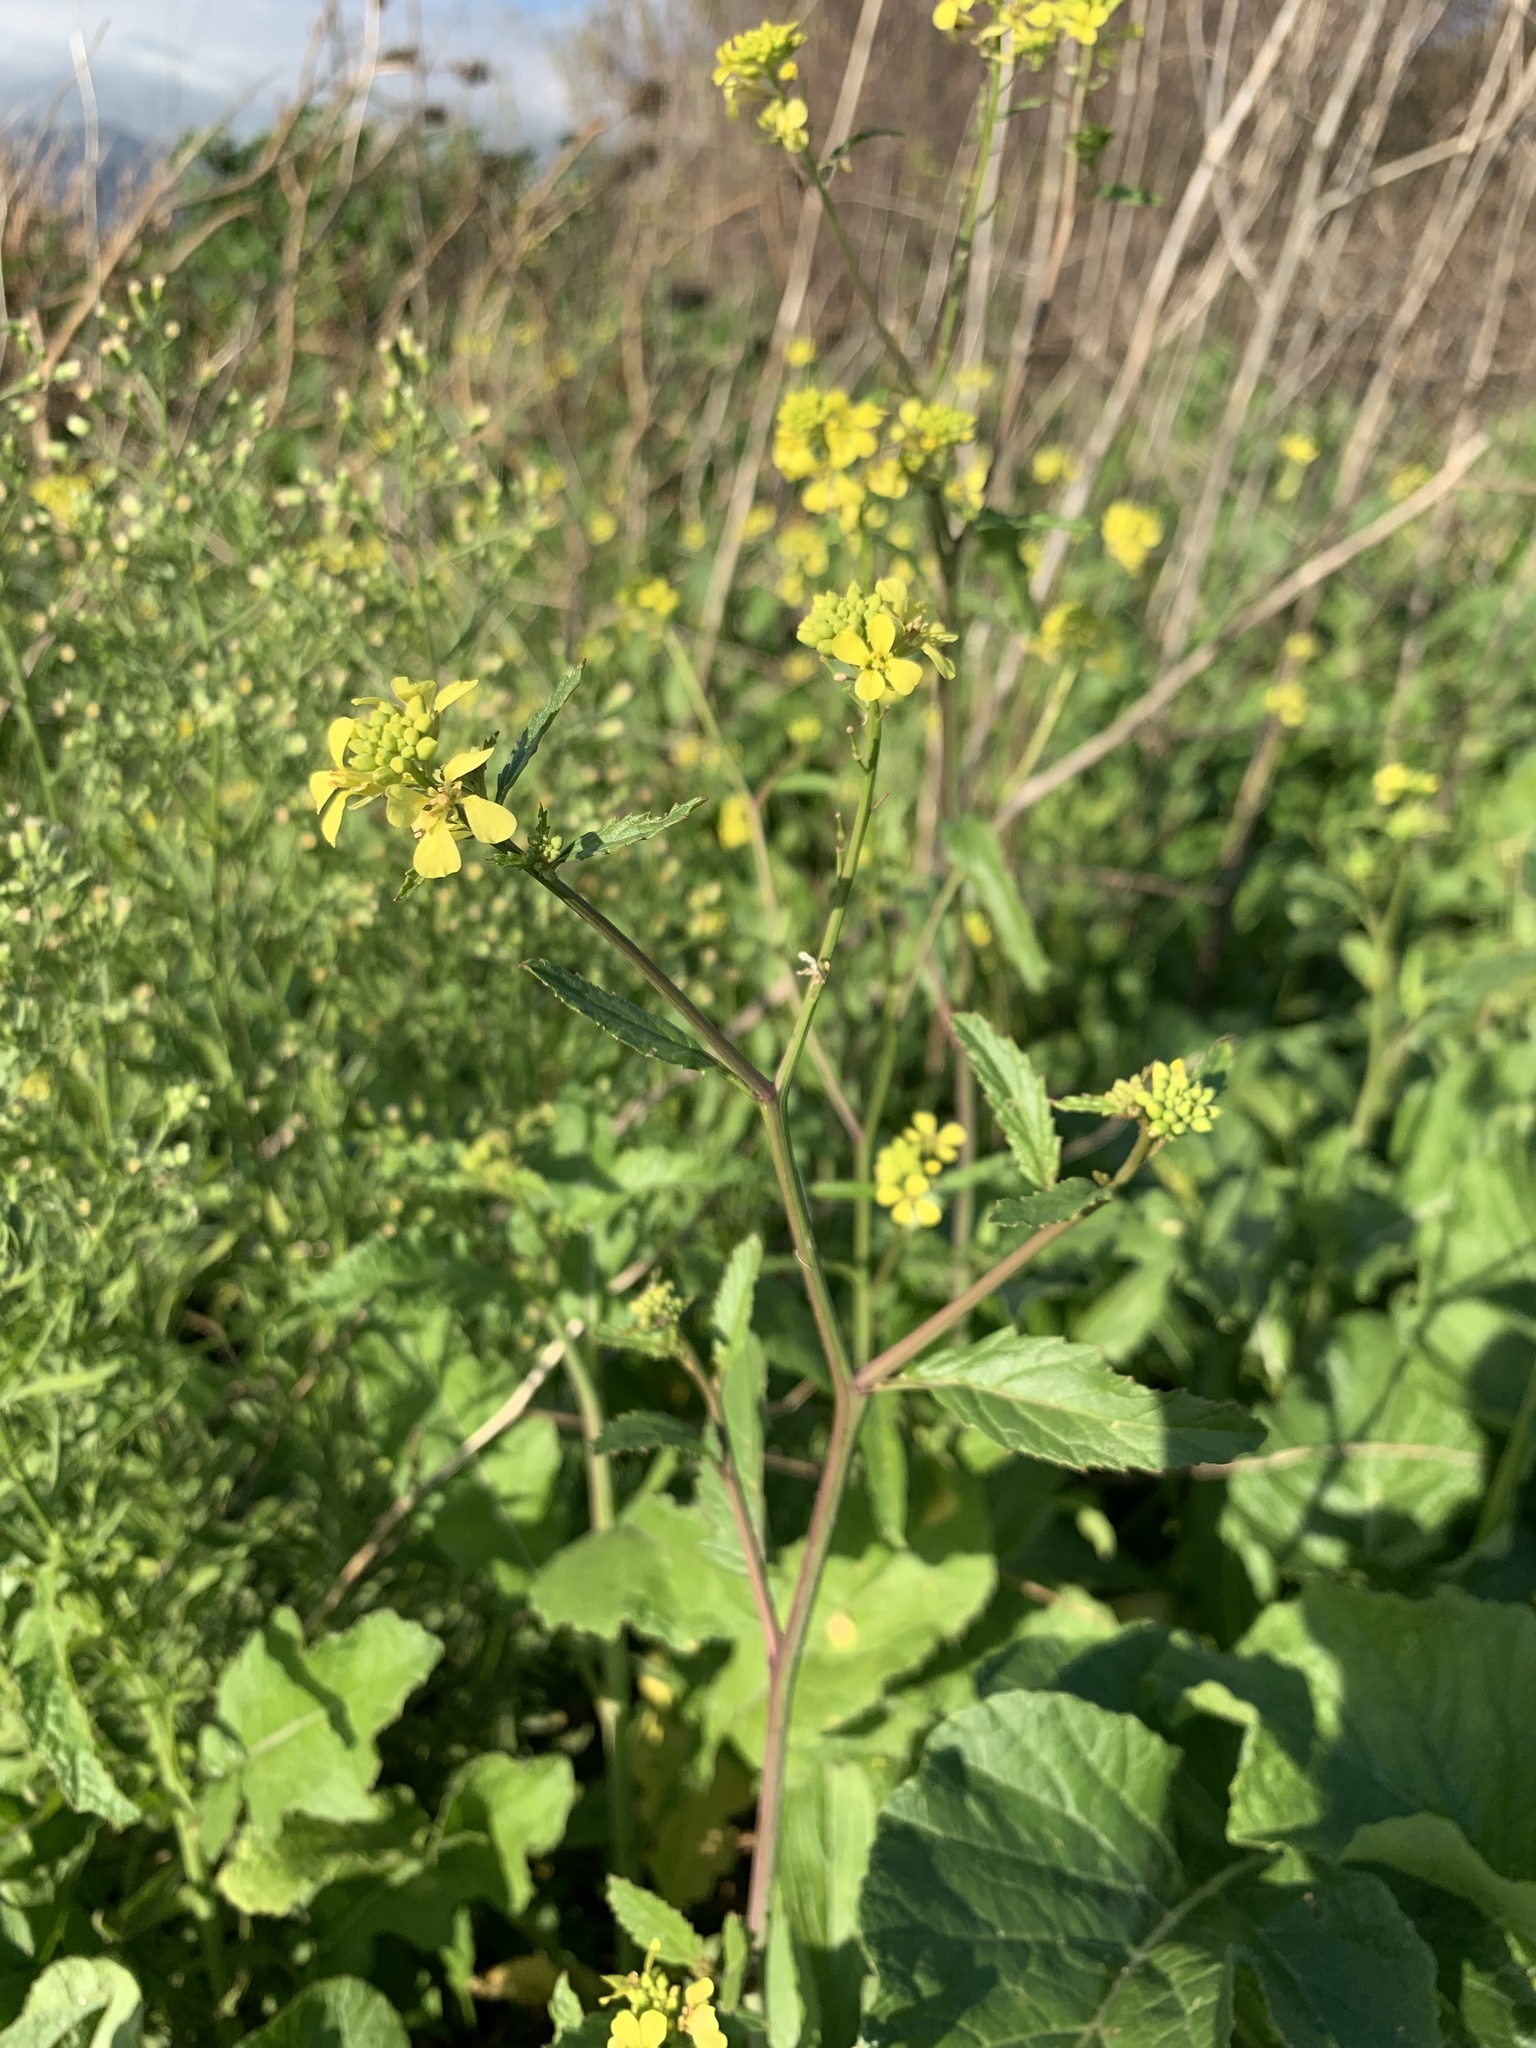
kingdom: Plantae
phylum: Tracheophyta
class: Magnoliopsida
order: Brassicales
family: Brassicaceae
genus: Rapistrum
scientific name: Rapistrum rugosum
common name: Annual bastardcabbage
